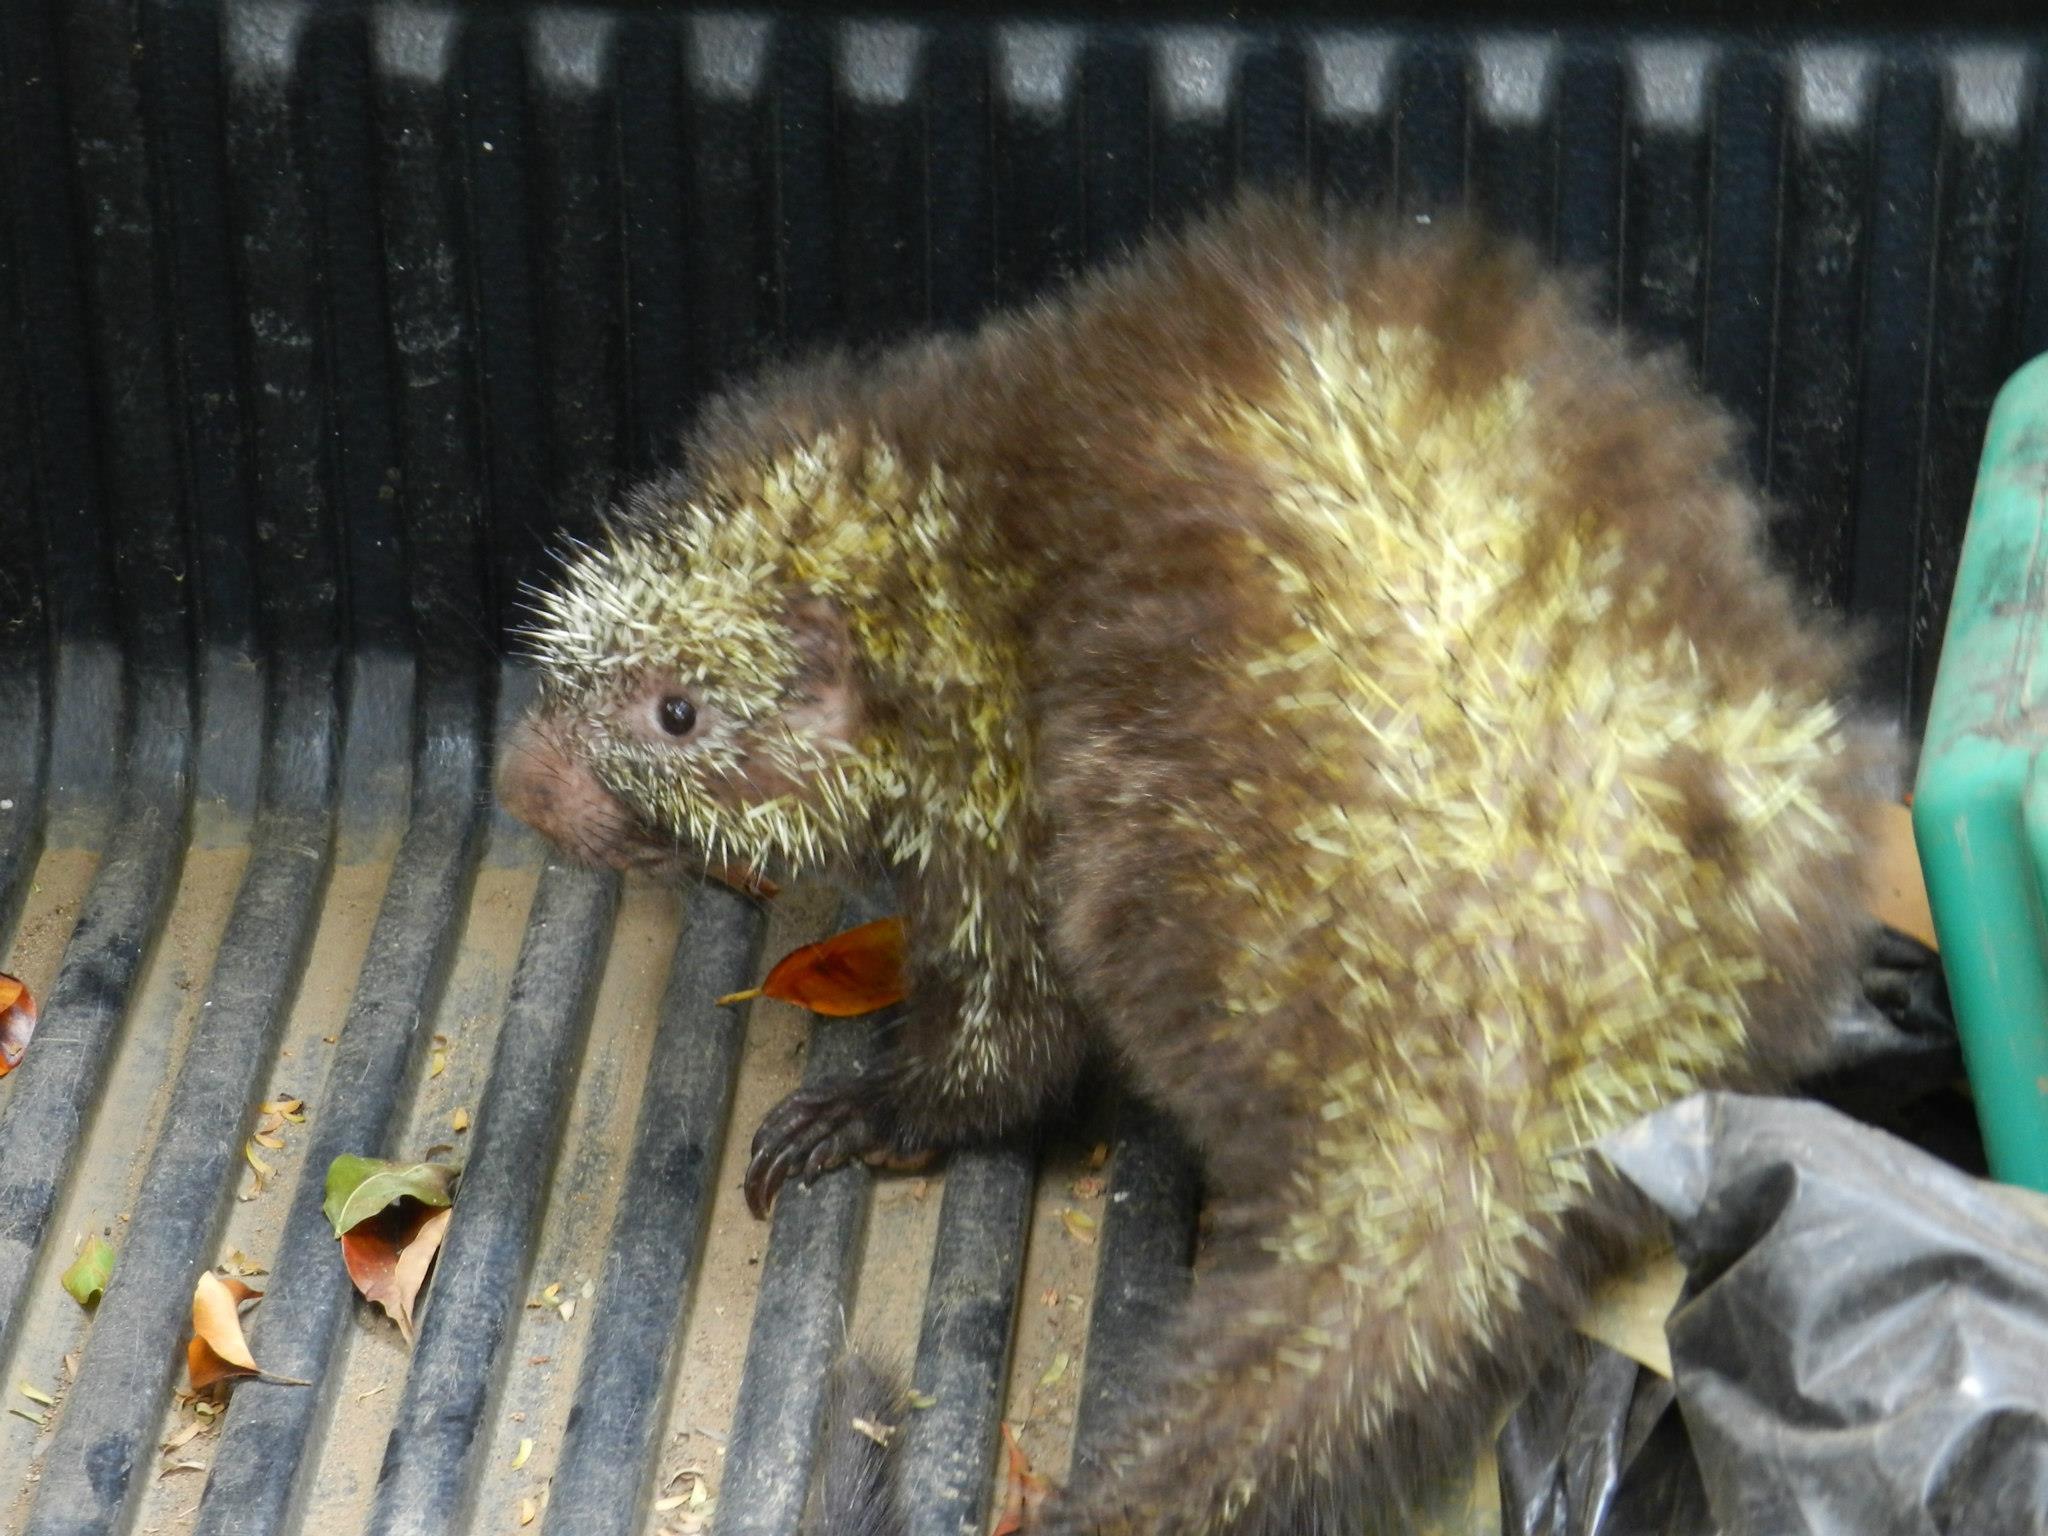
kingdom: Animalia
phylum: Chordata
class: Mammalia
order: Rodentia
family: Erethizontidae
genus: Sphiggurus
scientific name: Sphiggurus mexicanus
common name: Mexican hairy dwarf porcupine
